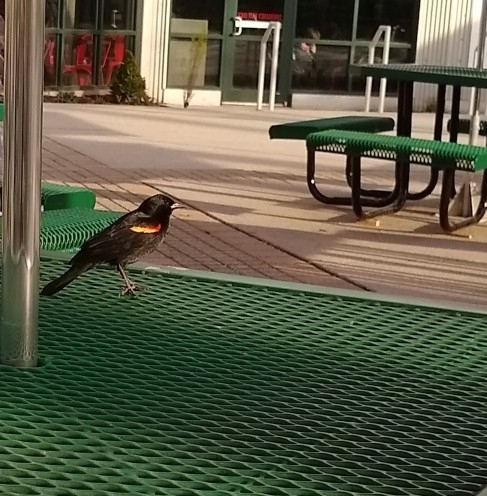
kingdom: Animalia
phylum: Chordata
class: Aves
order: Passeriformes
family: Icteridae
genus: Agelaius
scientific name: Agelaius phoeniceus
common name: Red-winged blackbird
